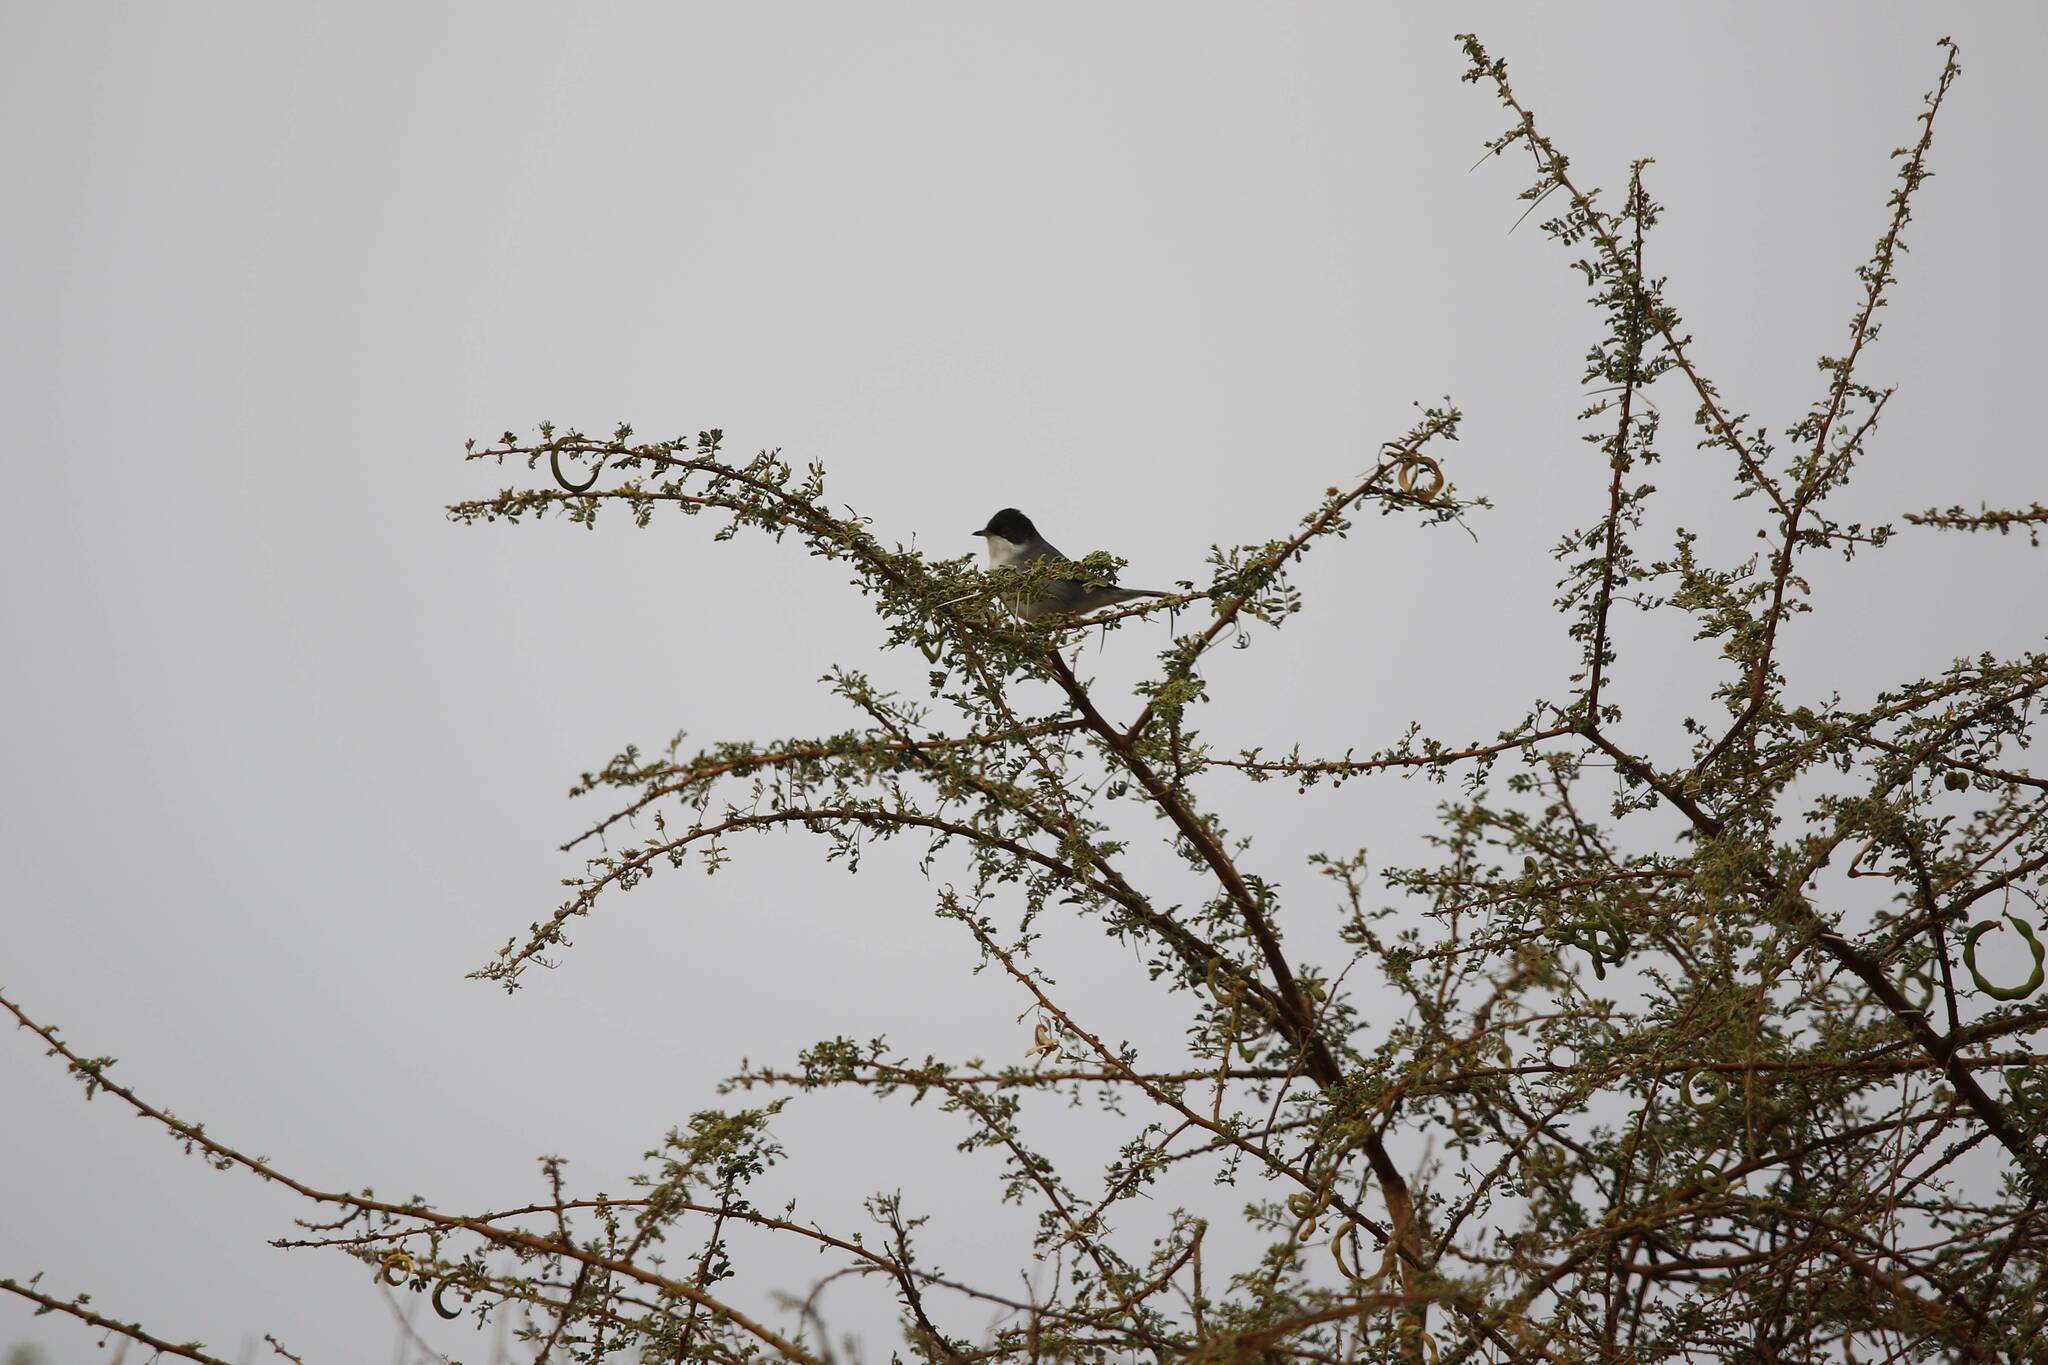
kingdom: Animalia
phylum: Chordata
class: Aves
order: Passeriformes
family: Sylviidae
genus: Curruca
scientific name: Curruca melanocephala
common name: Sardinian warbler
